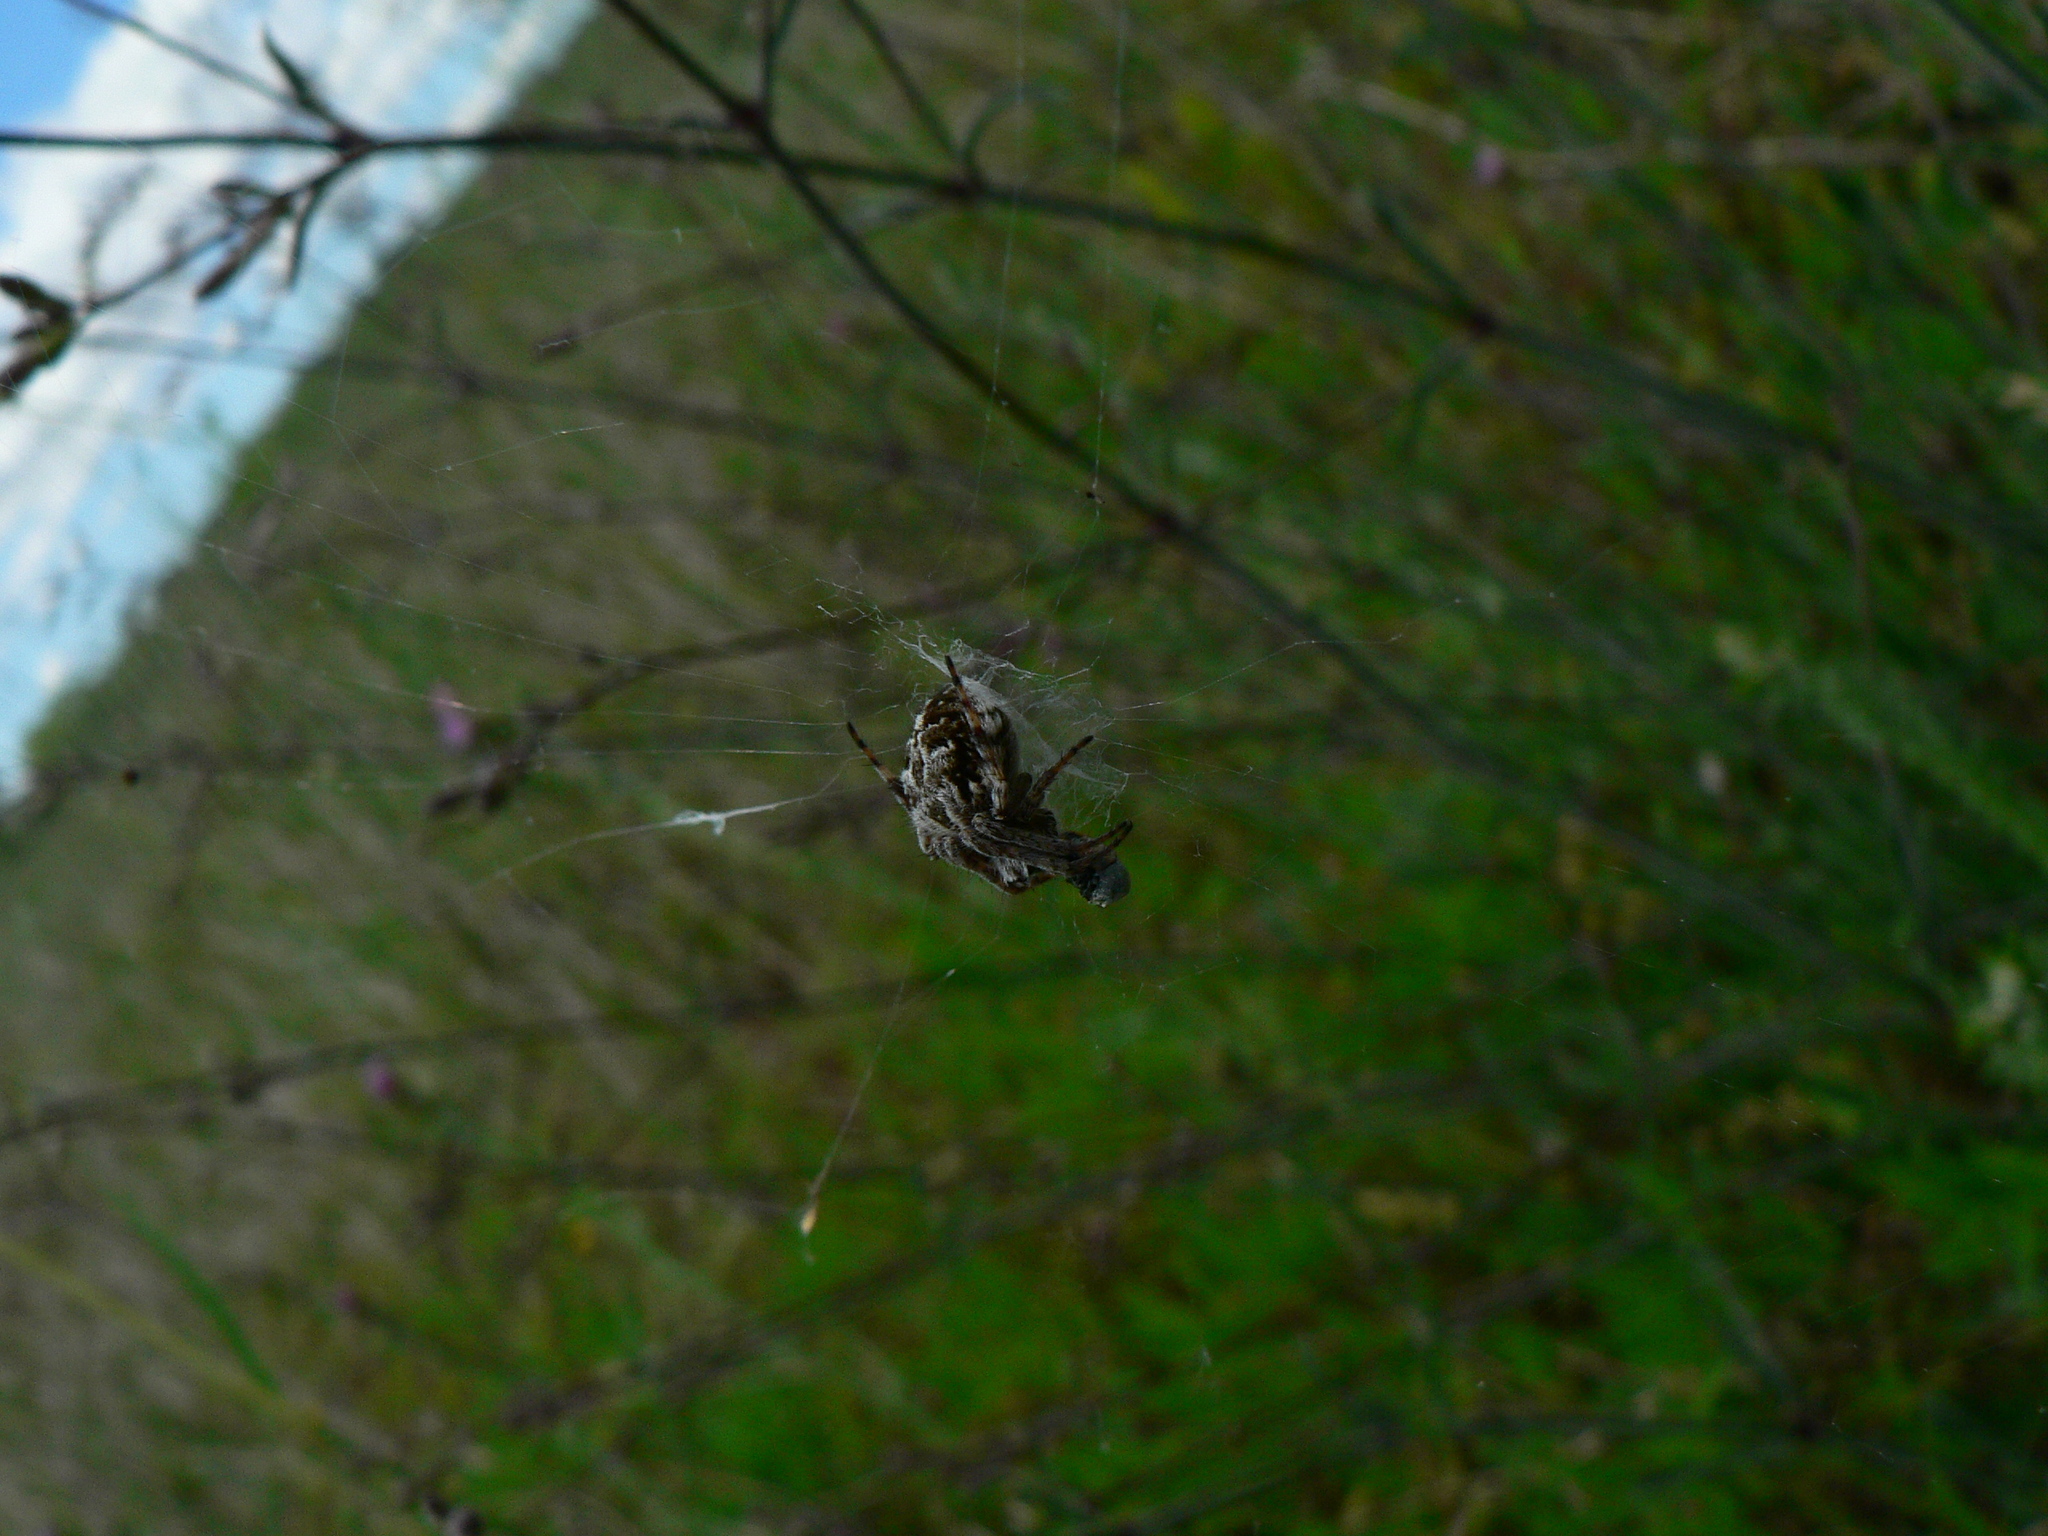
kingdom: Animalia
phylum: Arthropoda
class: Arachnida
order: Araneae
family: Araneidae
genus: Agalenatea
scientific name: Agalenatea redii
